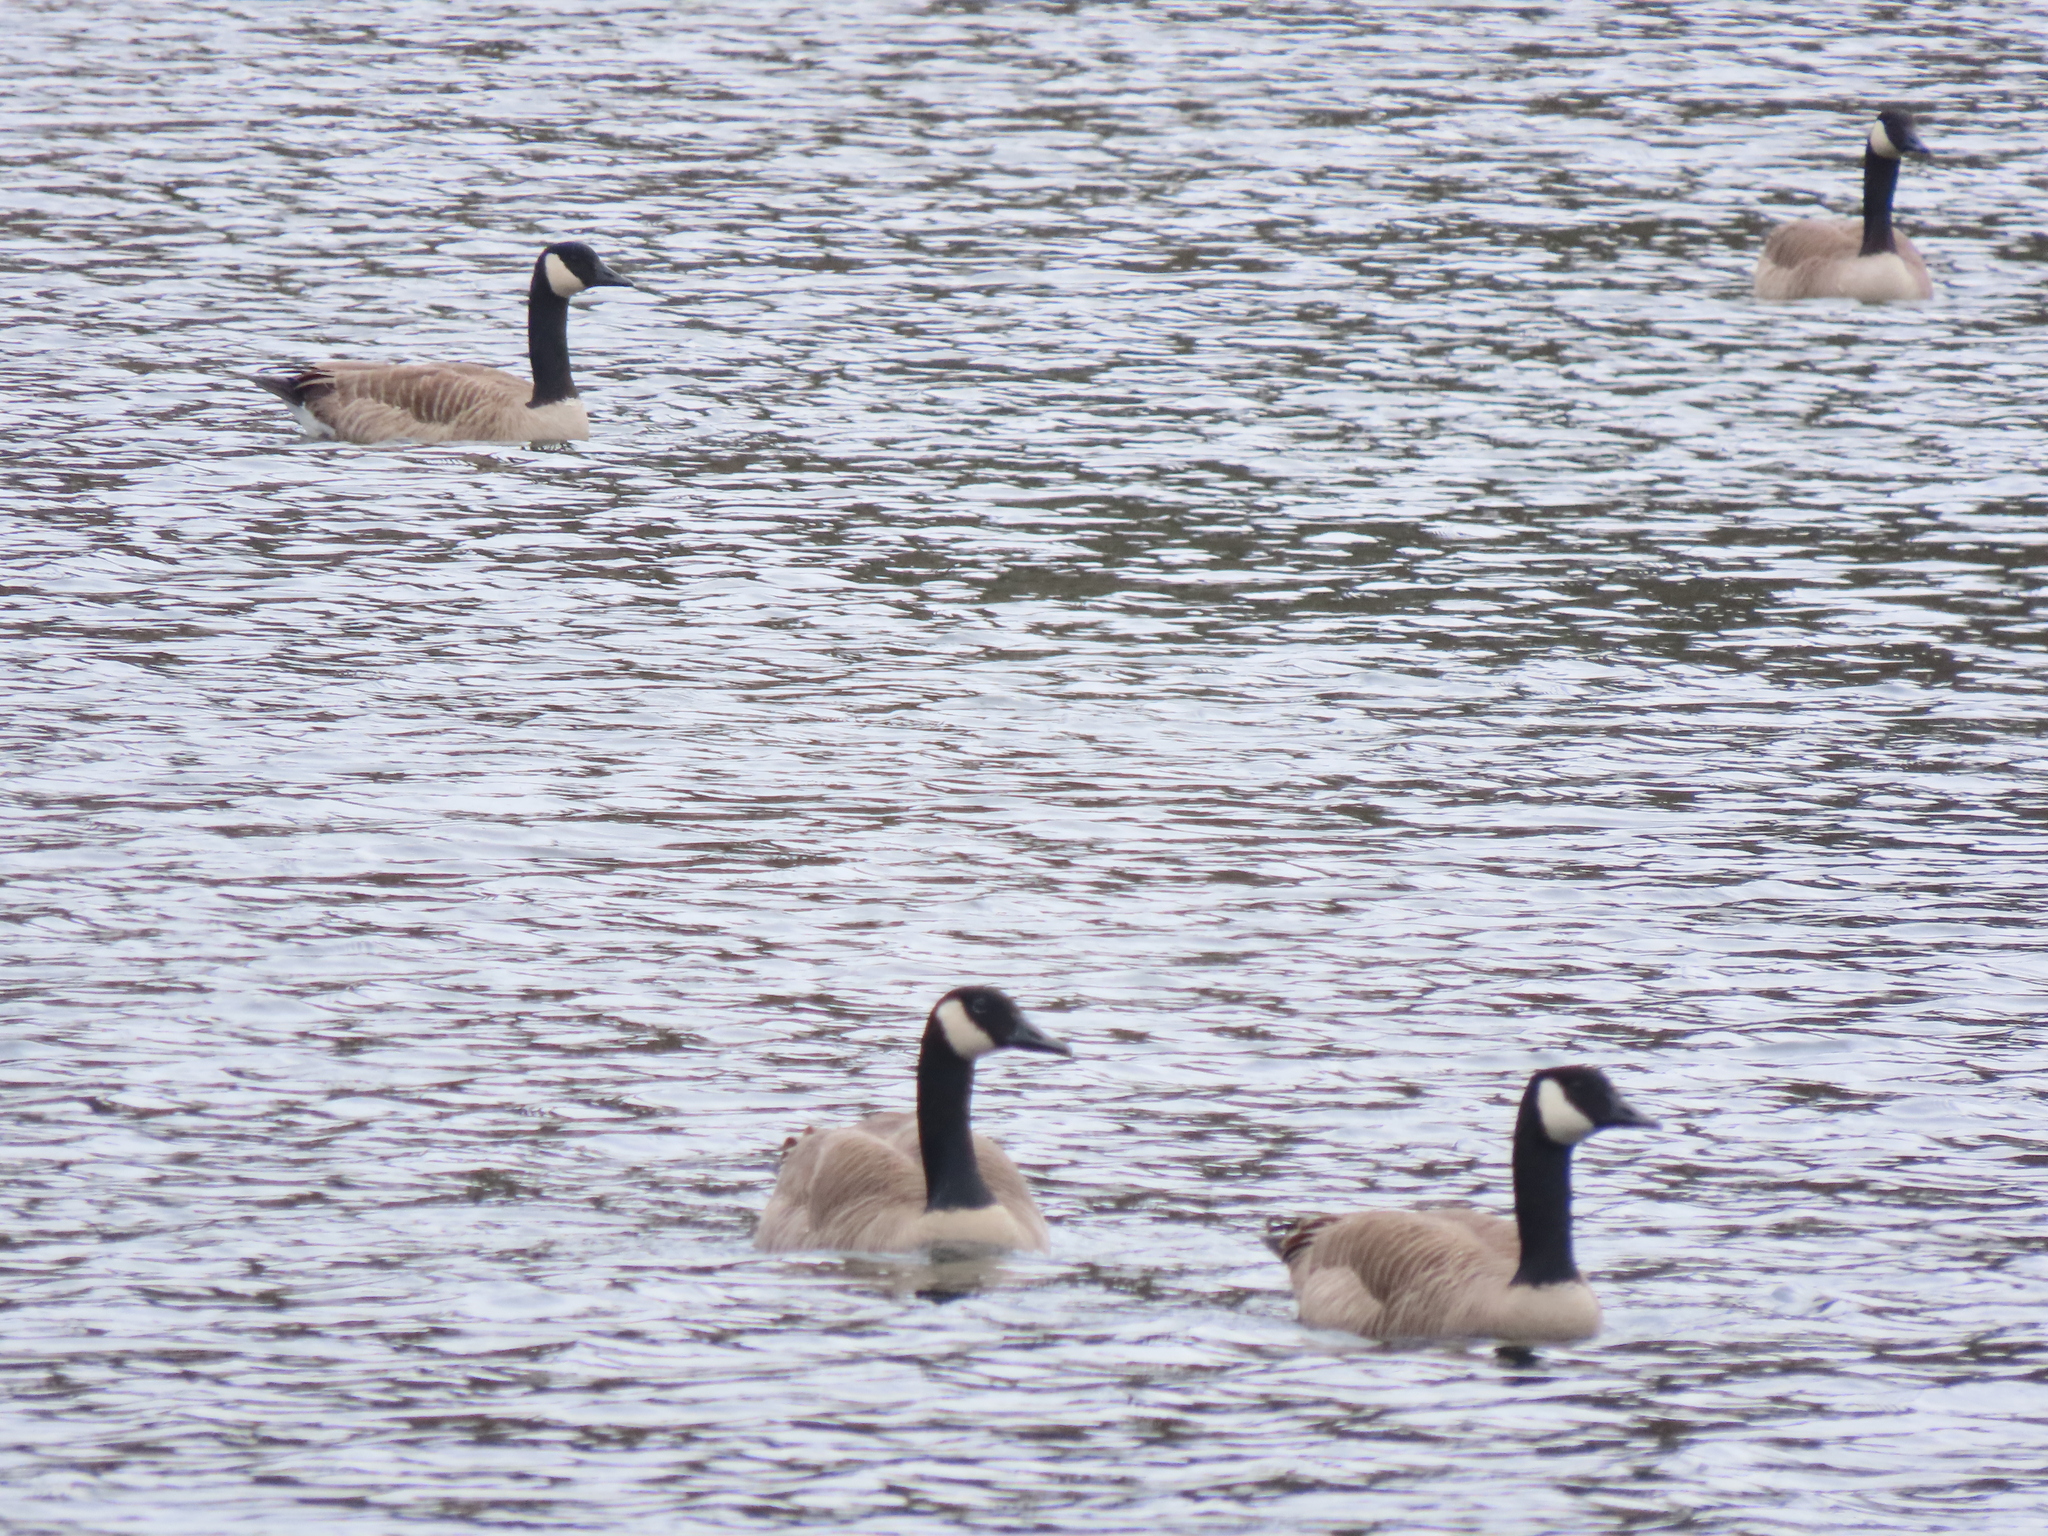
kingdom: Animalia
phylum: Chordata
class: Aves
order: Anseriformes
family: Anatidae
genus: Branta
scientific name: Branta canadensis
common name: Canada goose
